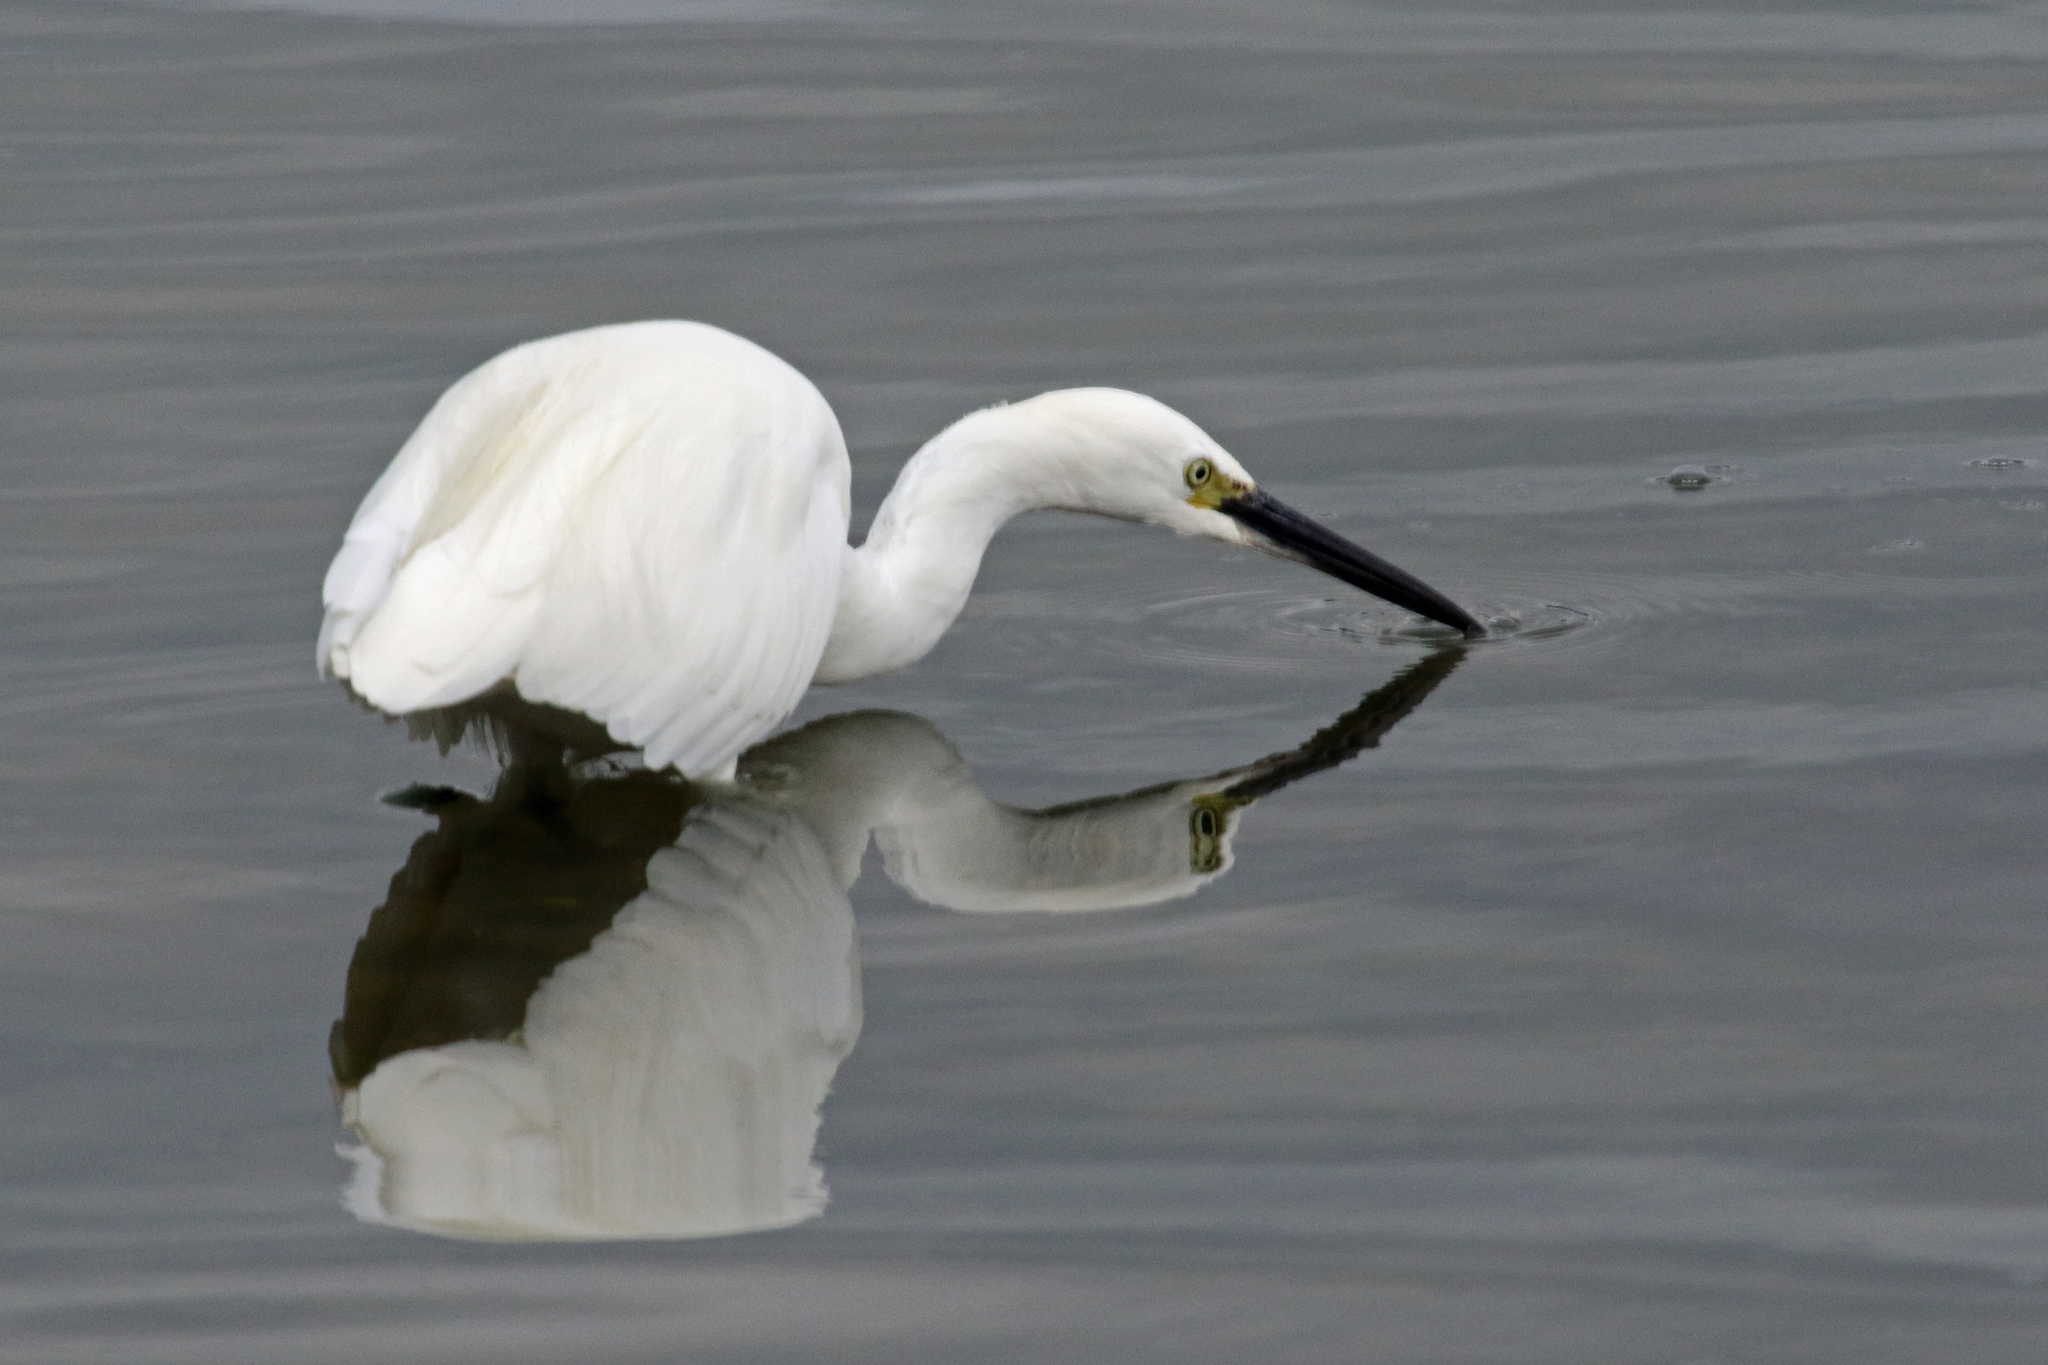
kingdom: Animalia
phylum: Chordata
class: Aves
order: Pelecaniformes
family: Ardeidae
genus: Egretta
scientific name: Egretta garzetta
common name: Little egret
